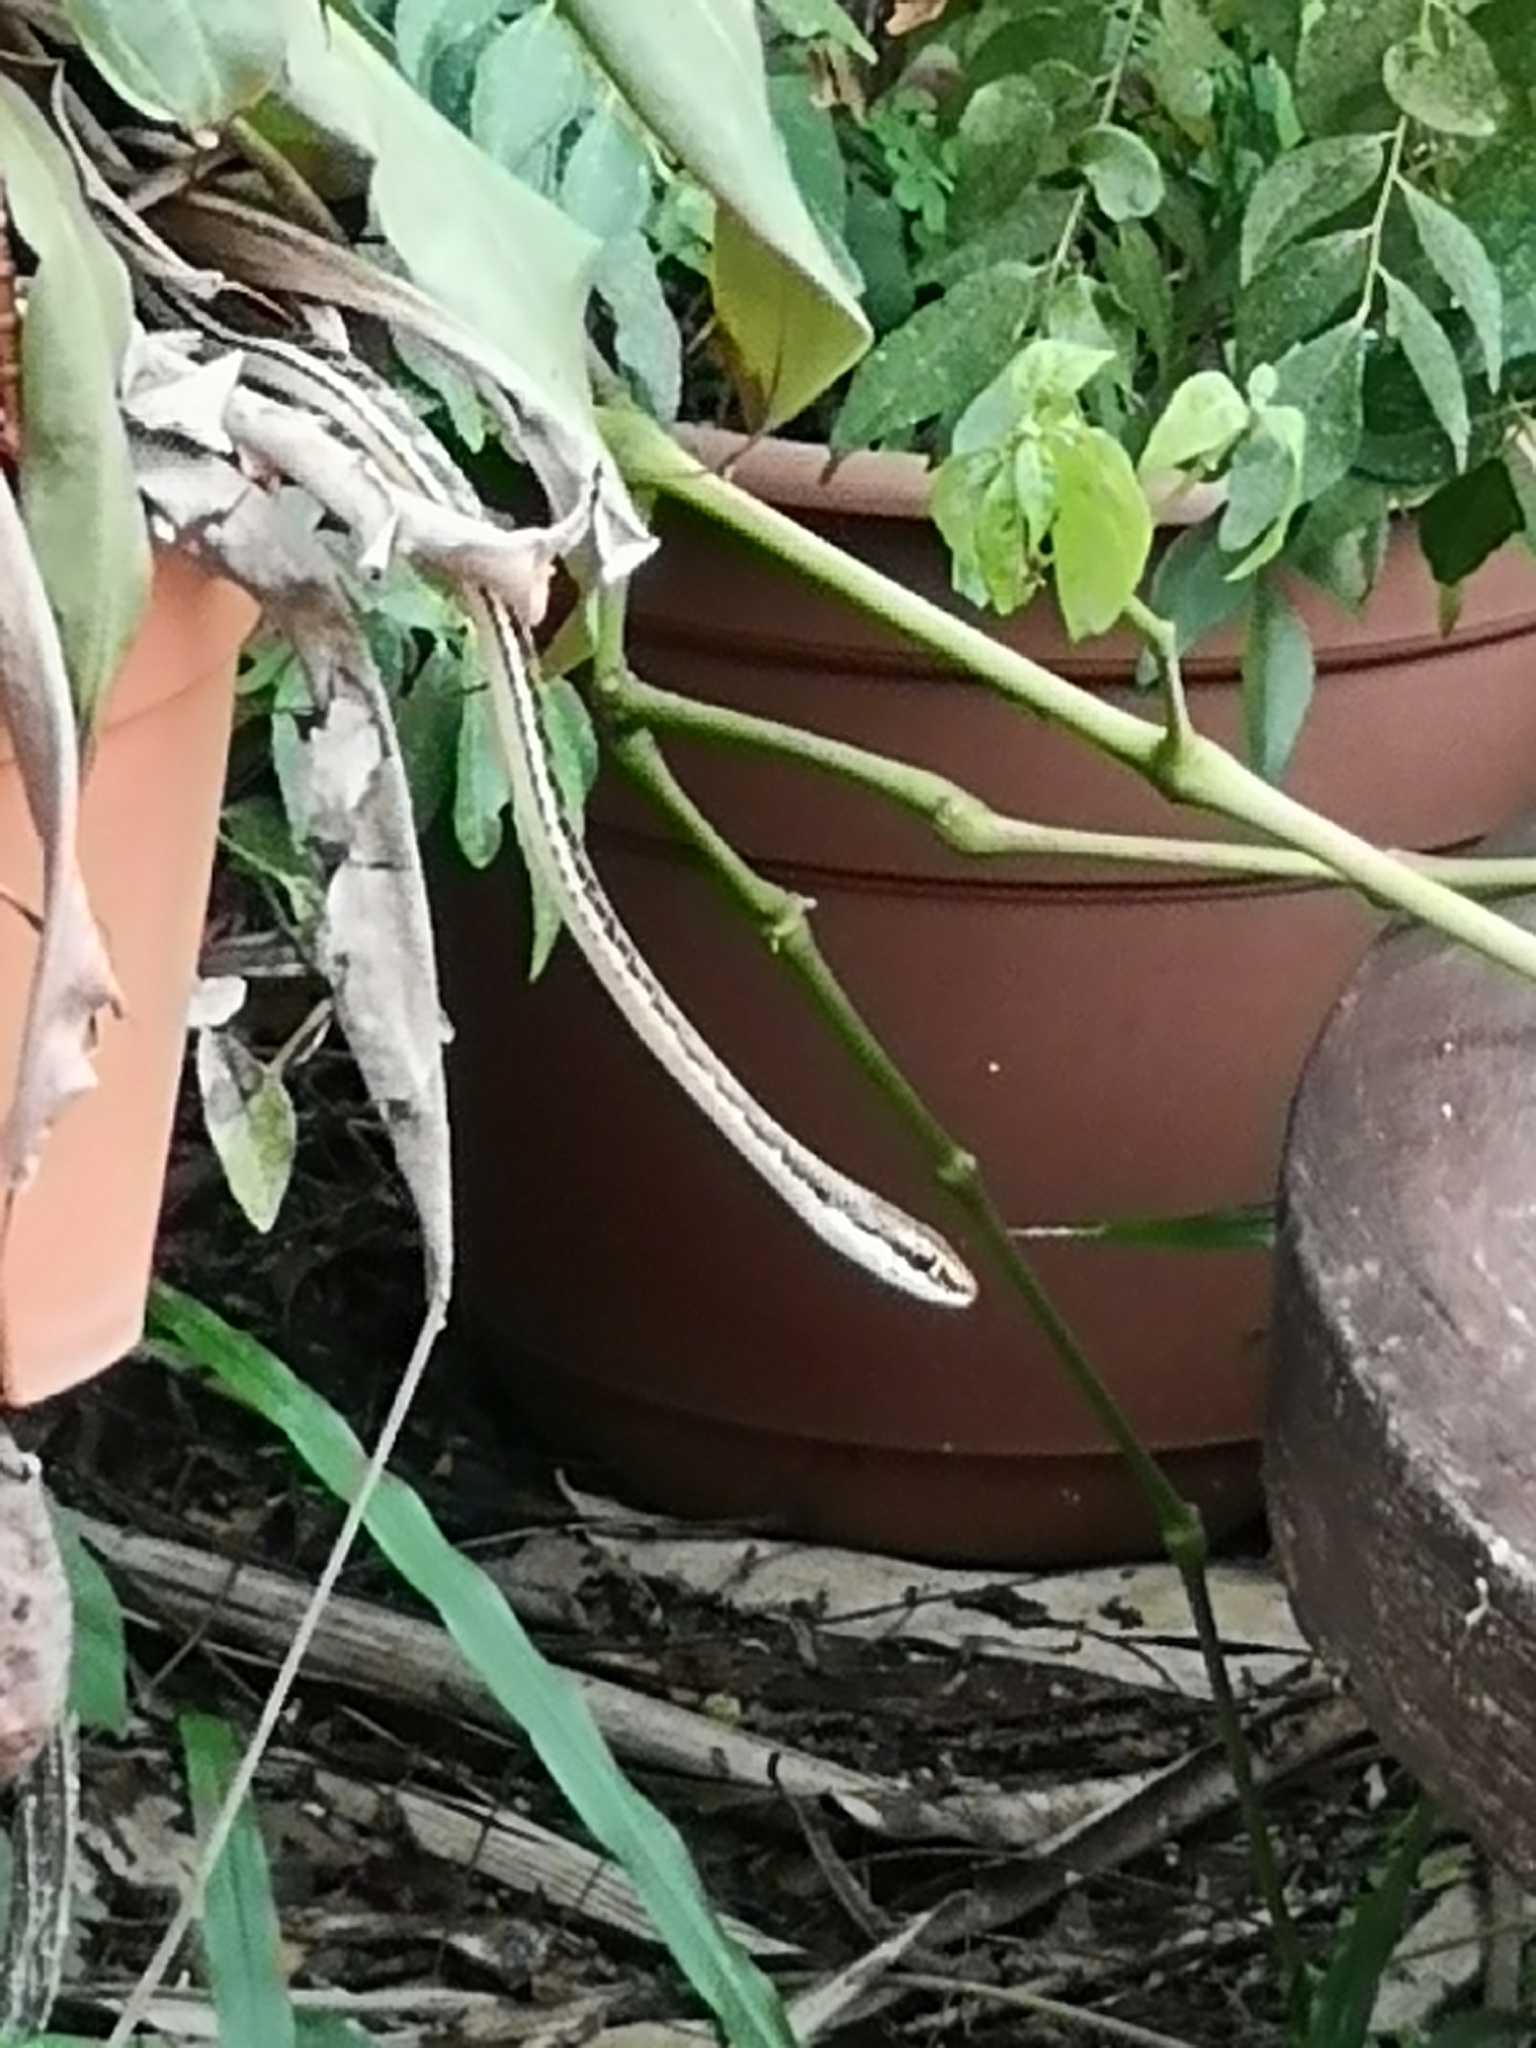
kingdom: Animalia
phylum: Chordata
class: Squamata
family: Colubridae
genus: Dendrelaphis
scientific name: Dendrelaphis pictus
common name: Indonesian bronze-back
